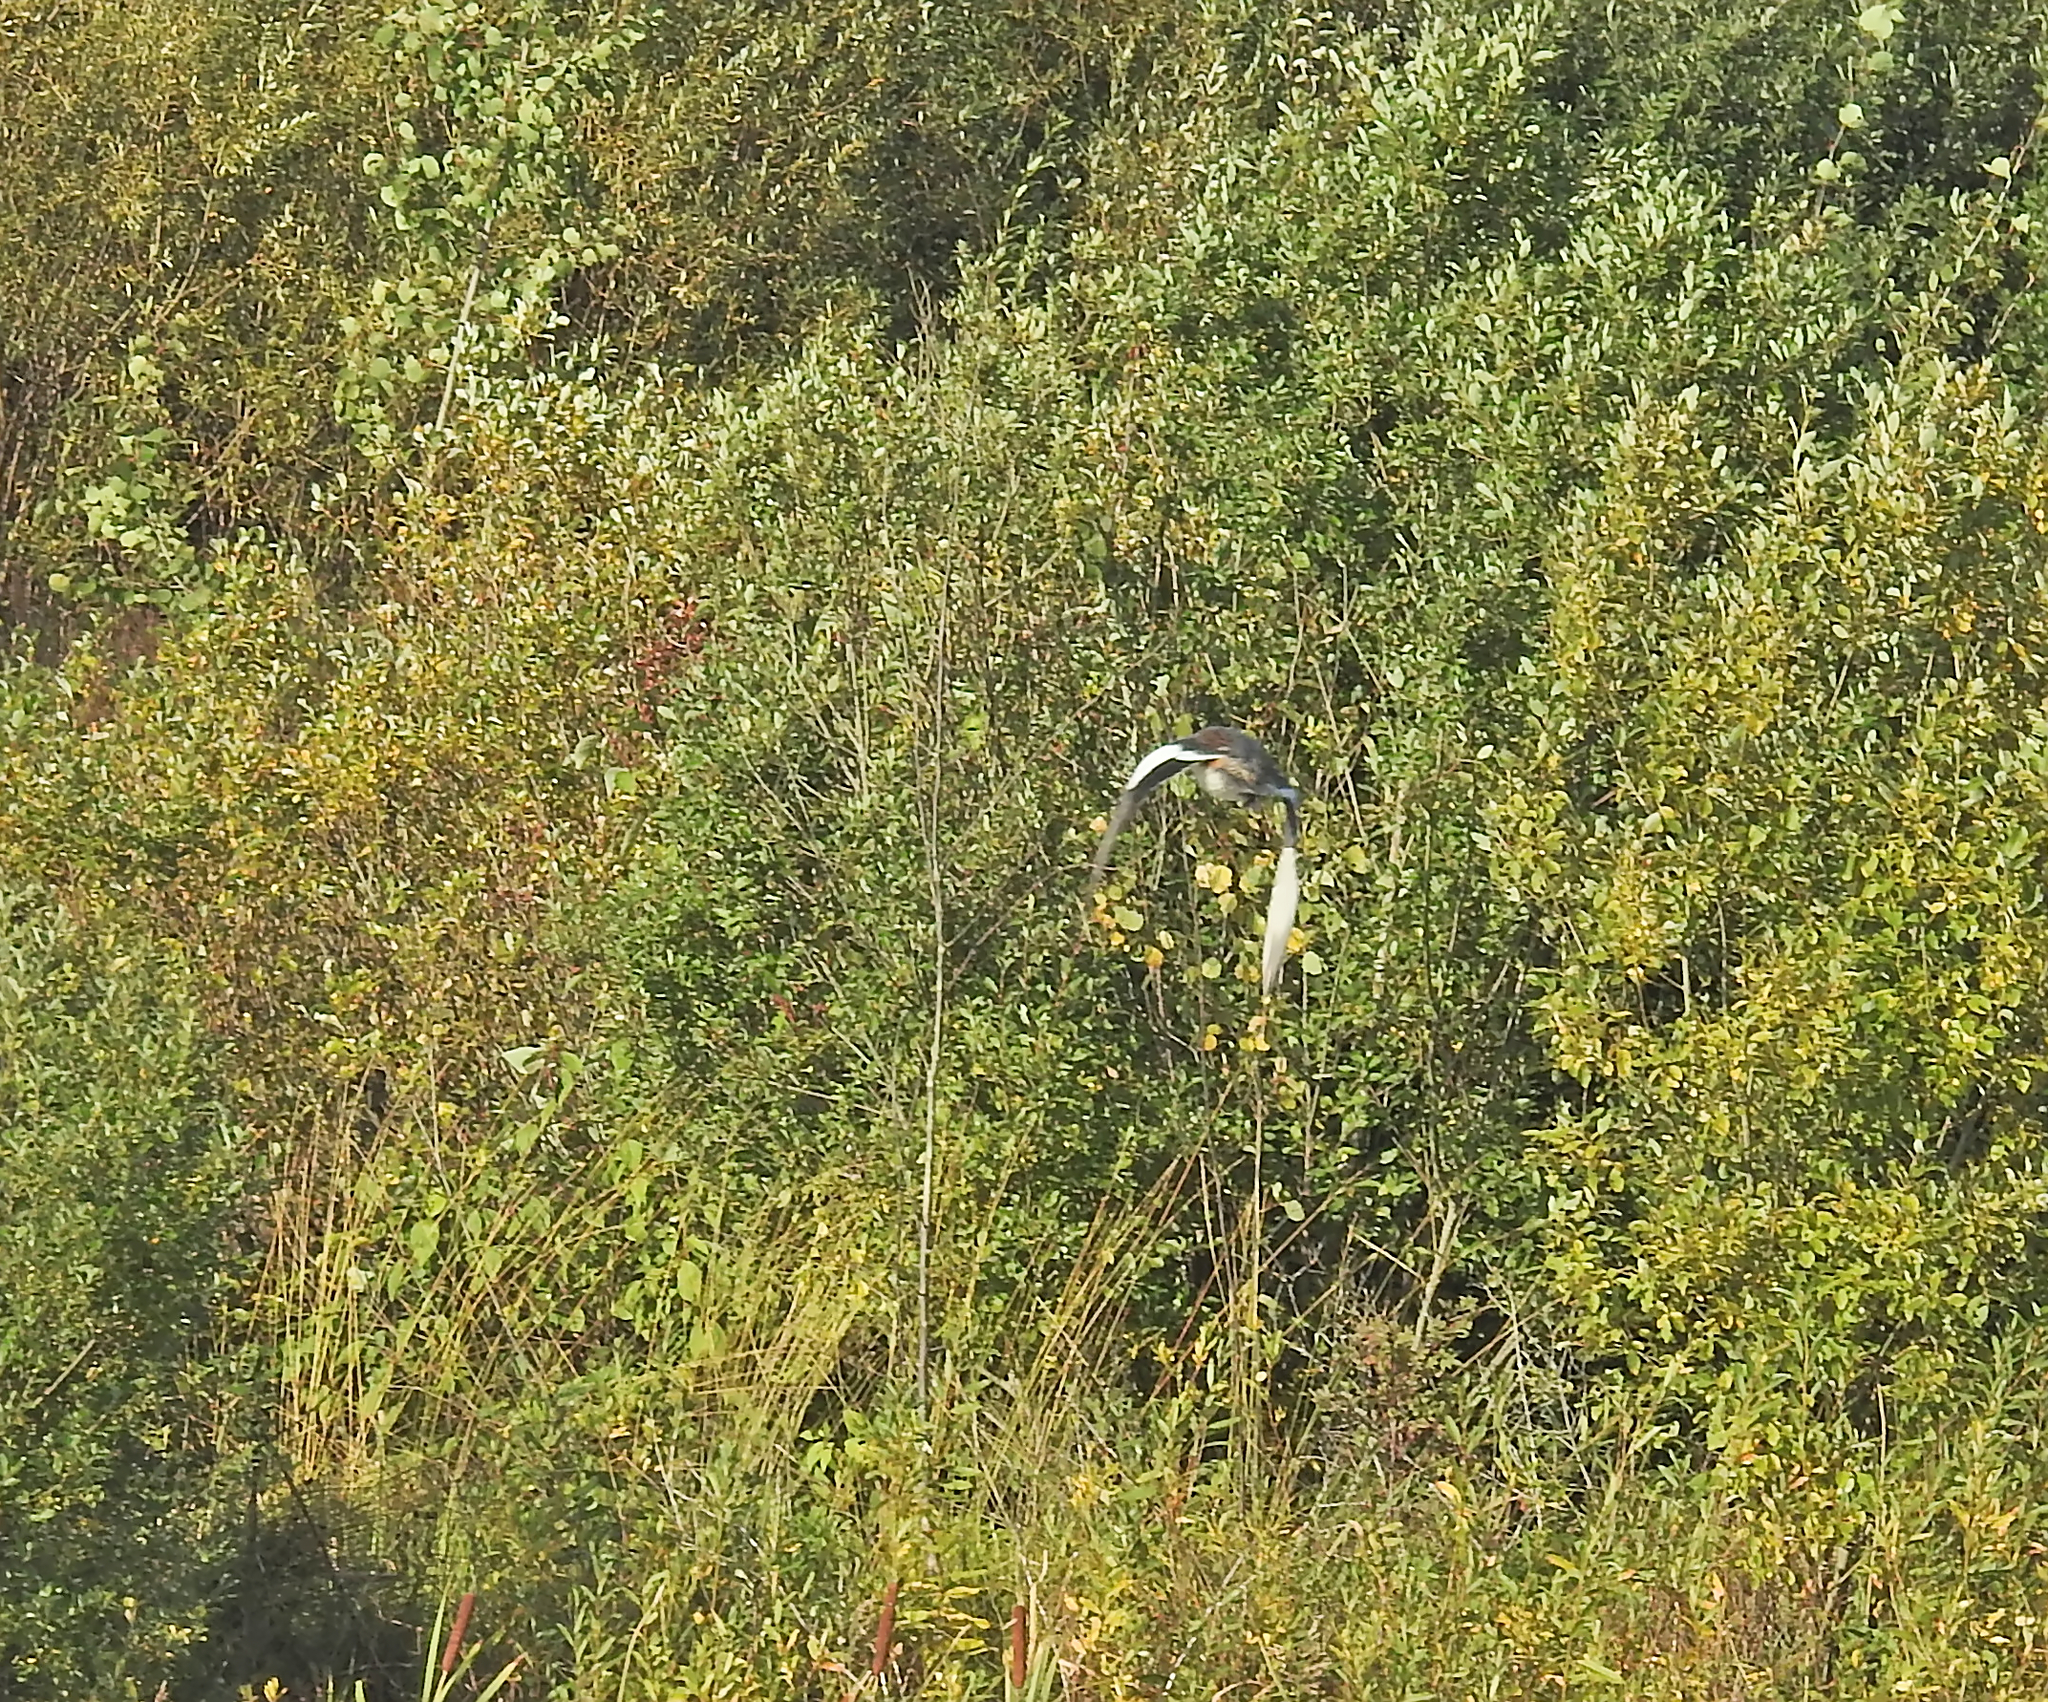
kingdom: Animalia
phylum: Chordata
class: Aves
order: Anseriformes
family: Anatidae
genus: Mareca
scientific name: Mareca penelope
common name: Eurasian wigeon
